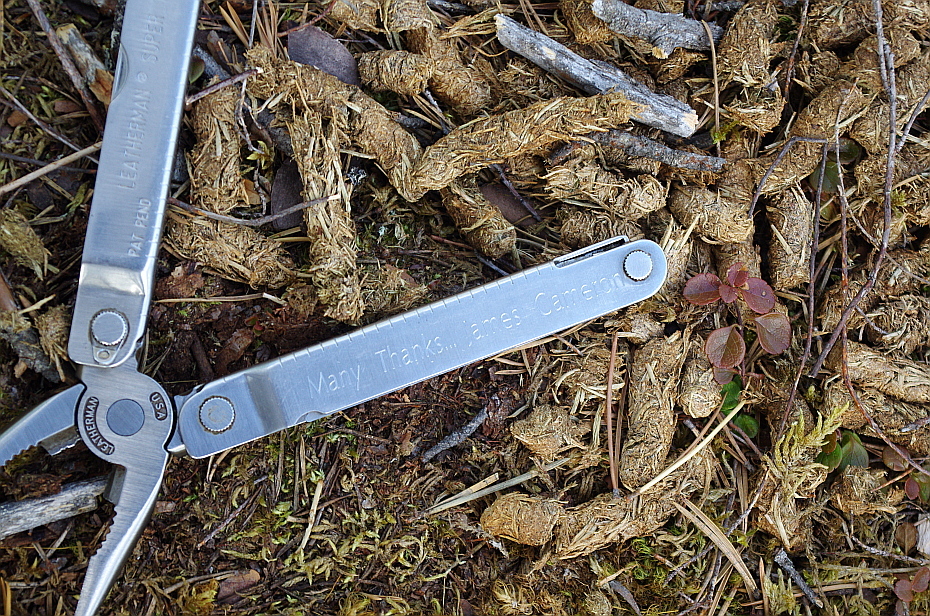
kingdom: Animalia
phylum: Chordata
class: Aves
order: Galliformes
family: Phasianidae
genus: Tetrao
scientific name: Tetrao urogallus
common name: Western capercaillie
